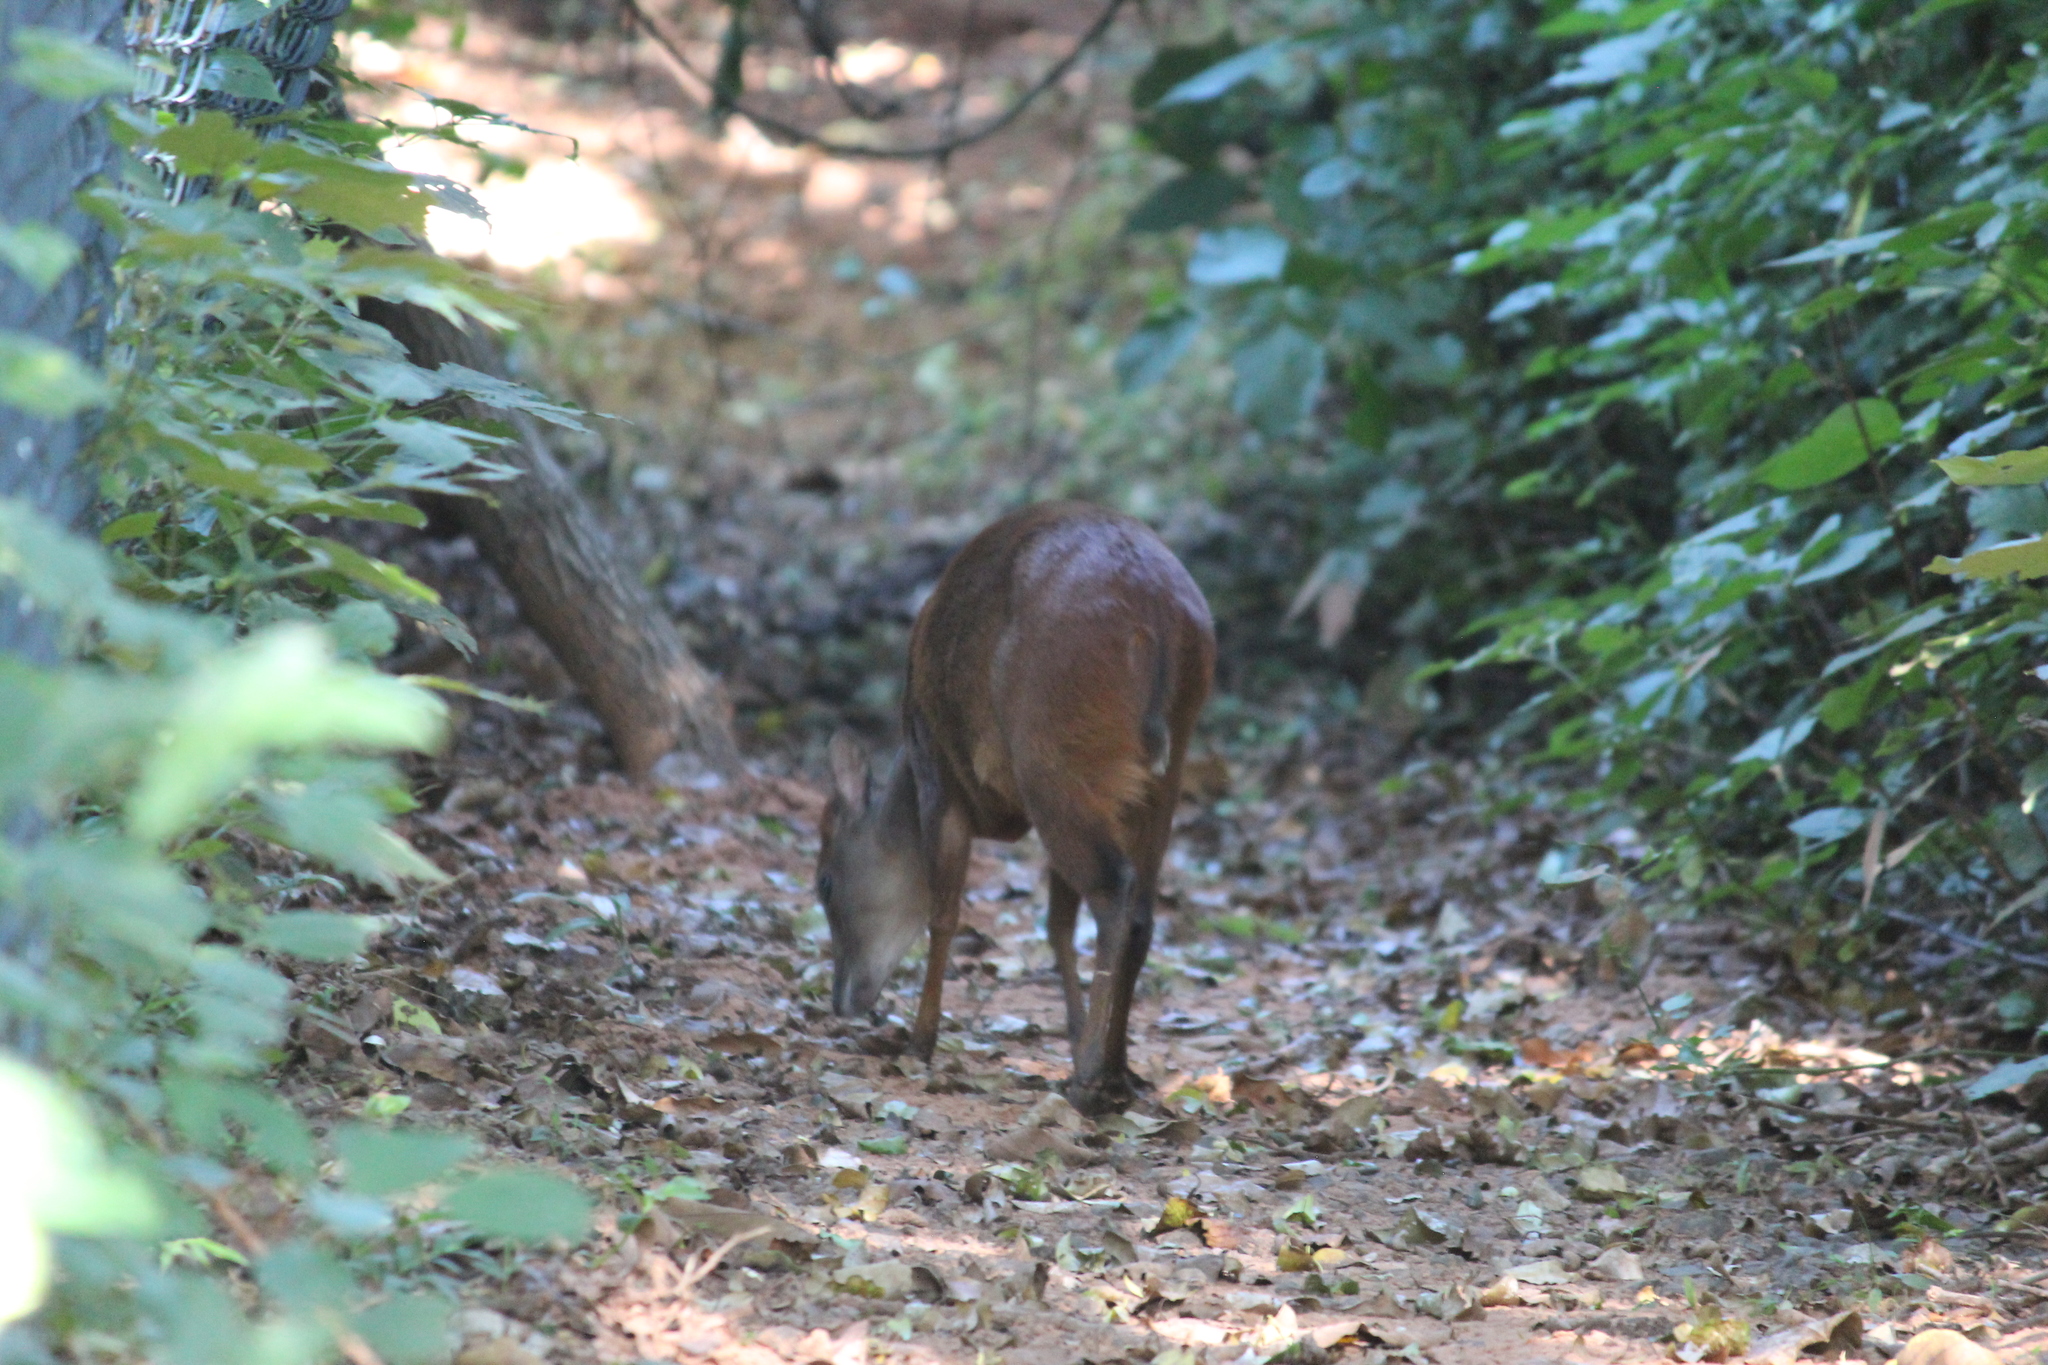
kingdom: Animalia
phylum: Chordata
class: Mammalia
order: Artiodactyla
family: Bovidae
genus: Cephalophus
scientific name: Cephalophus natalensis
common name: Red duiker
